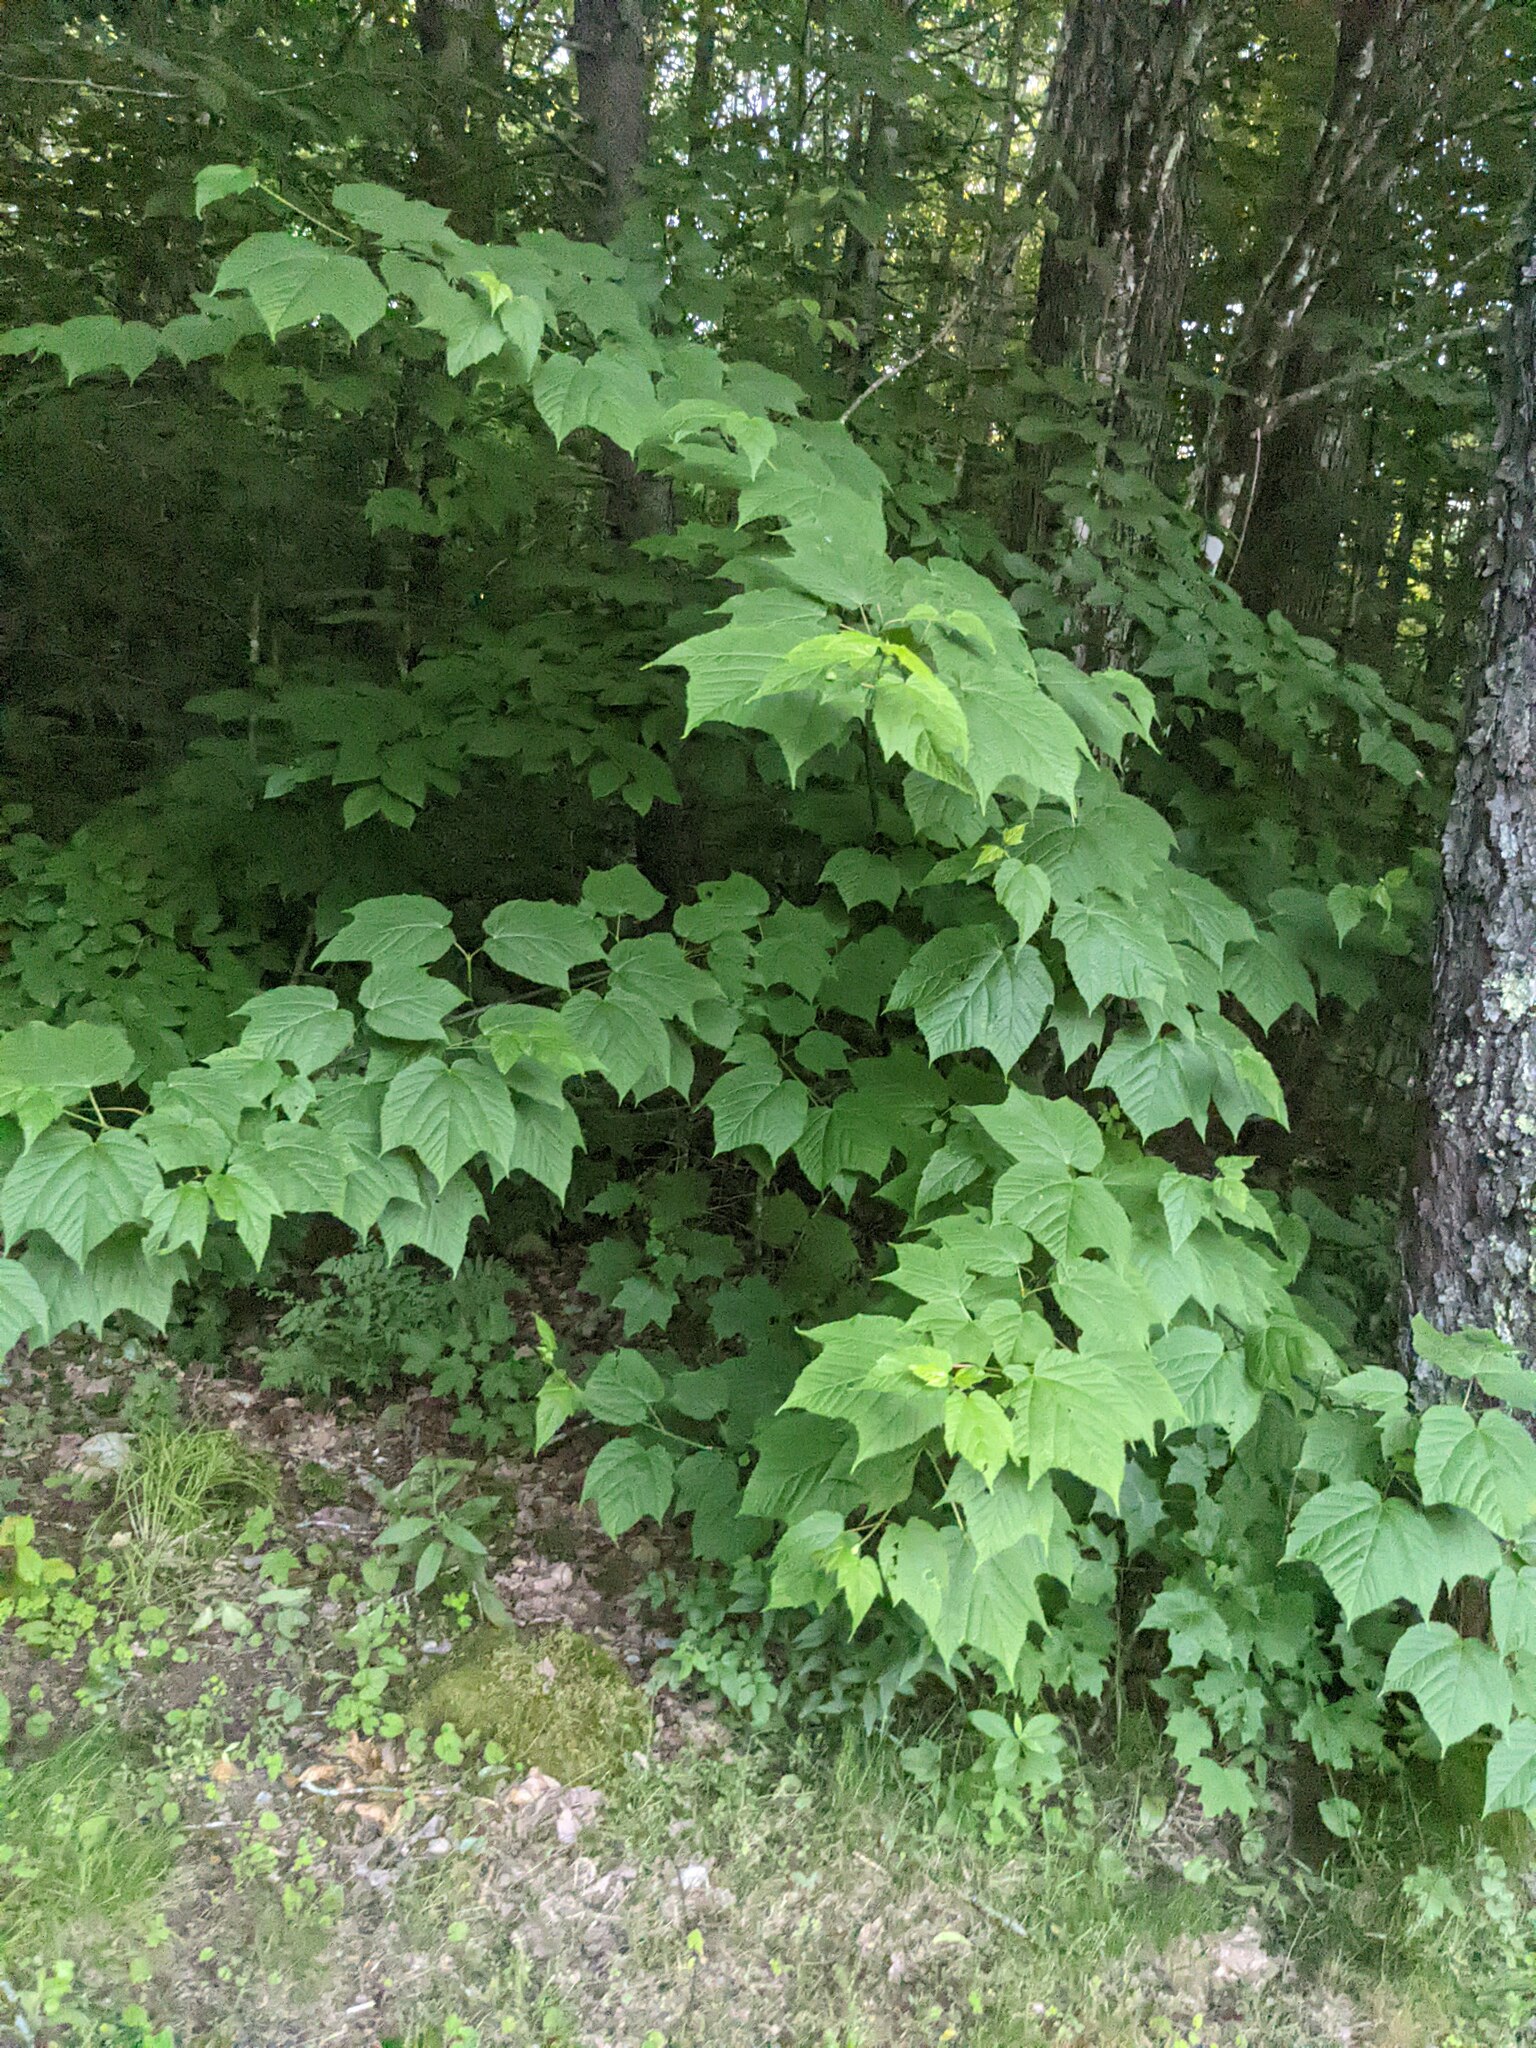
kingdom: Plantae
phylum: Tracheophyta
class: Magnoliopsida
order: Sapindales
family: Sapindaceae
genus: Acer
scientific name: Acer pensylvanicum
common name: Moosewood
